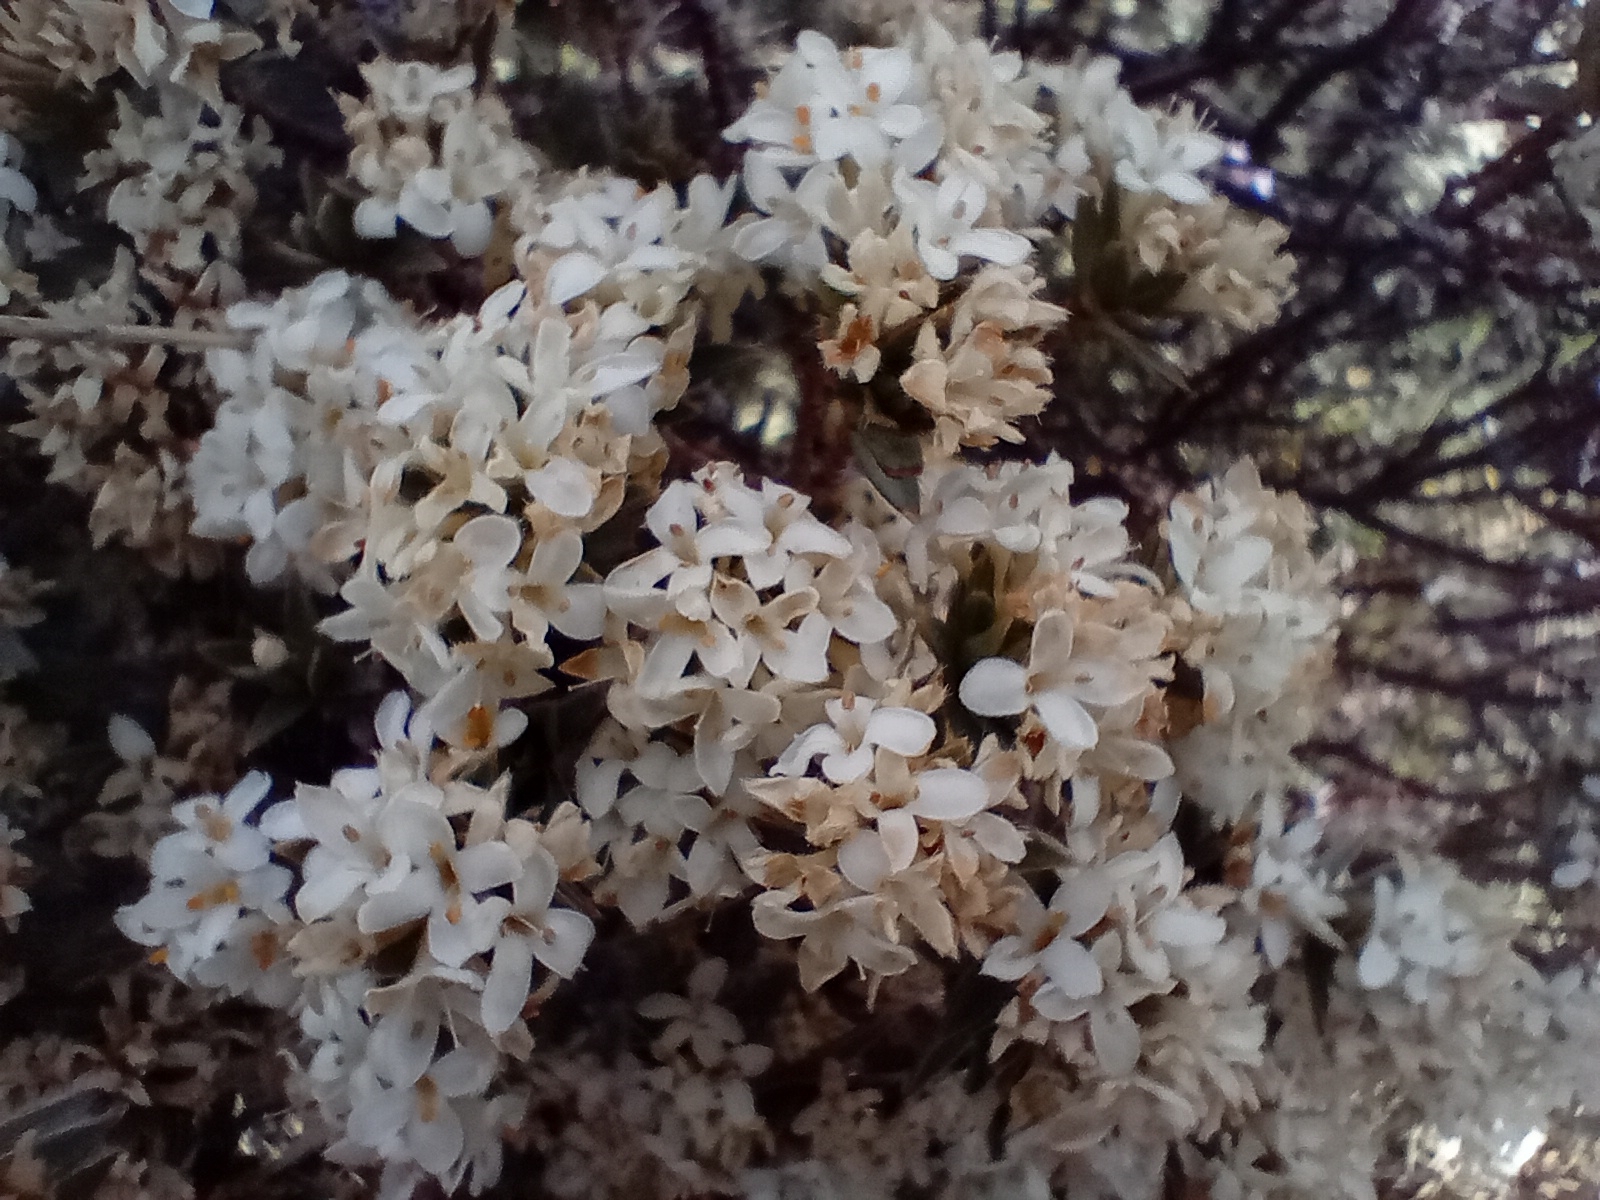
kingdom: Plantae
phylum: Tracheophyta
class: Magnoliopsida
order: Malvales
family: Thymelaeaceae
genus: Pimelea
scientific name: Pimelea aridula
